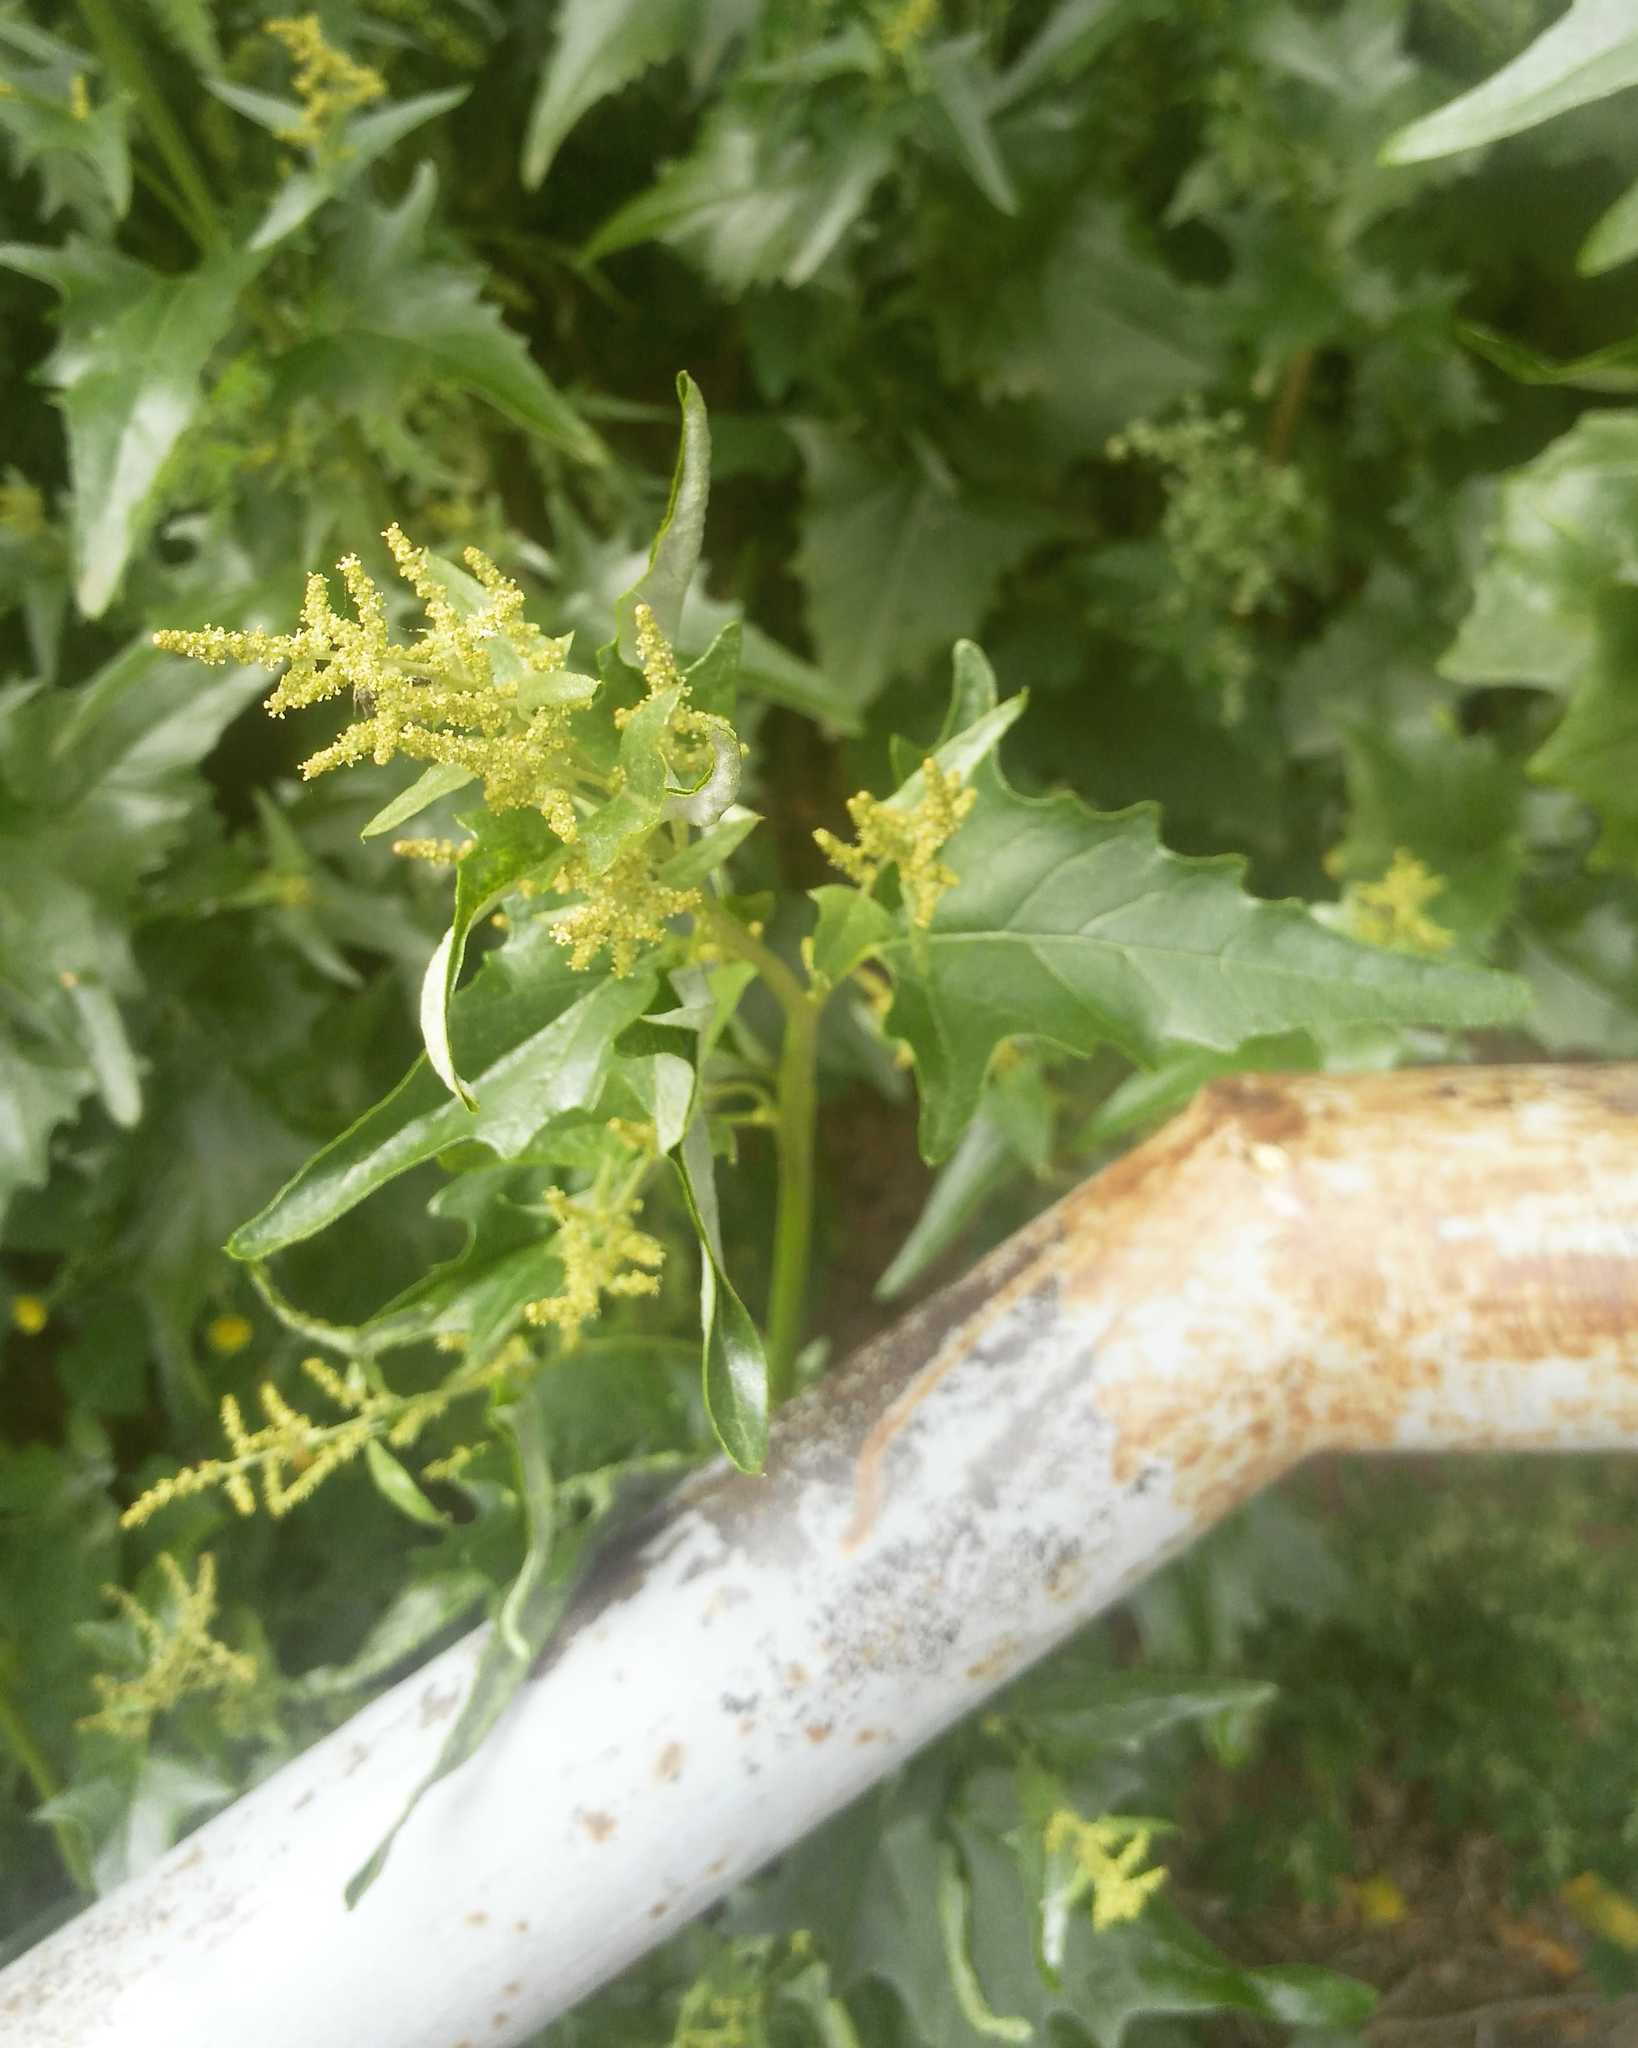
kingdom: Plantae
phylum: Tracheophyta
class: Magnoliopsida
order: Caryophyllales
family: Amaranthaceae
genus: Atriplex
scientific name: Atriplex sagittata
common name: Purple orache
